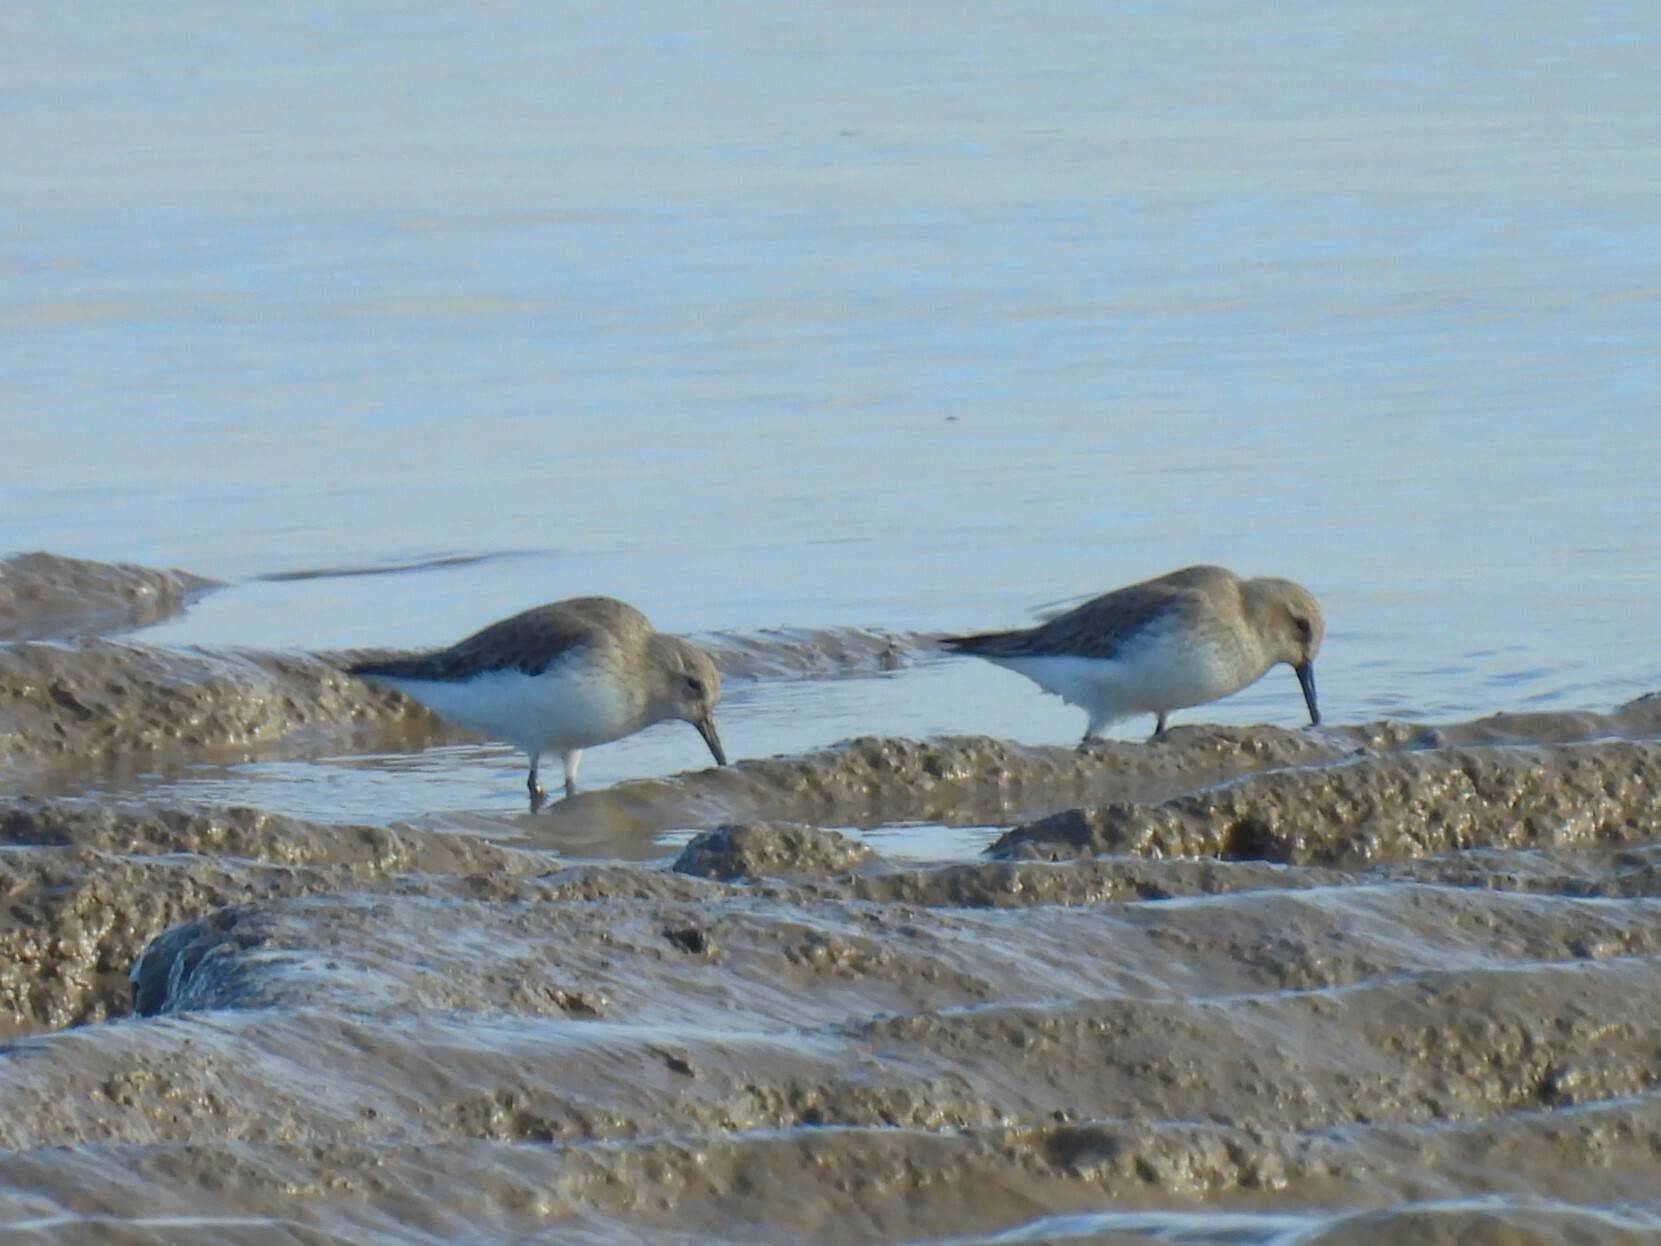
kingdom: Animalia
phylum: Chordata
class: Aves
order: Charadriiformes
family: Scolopacidae
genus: Calidris
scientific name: Calidris alpina
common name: Dunlin
